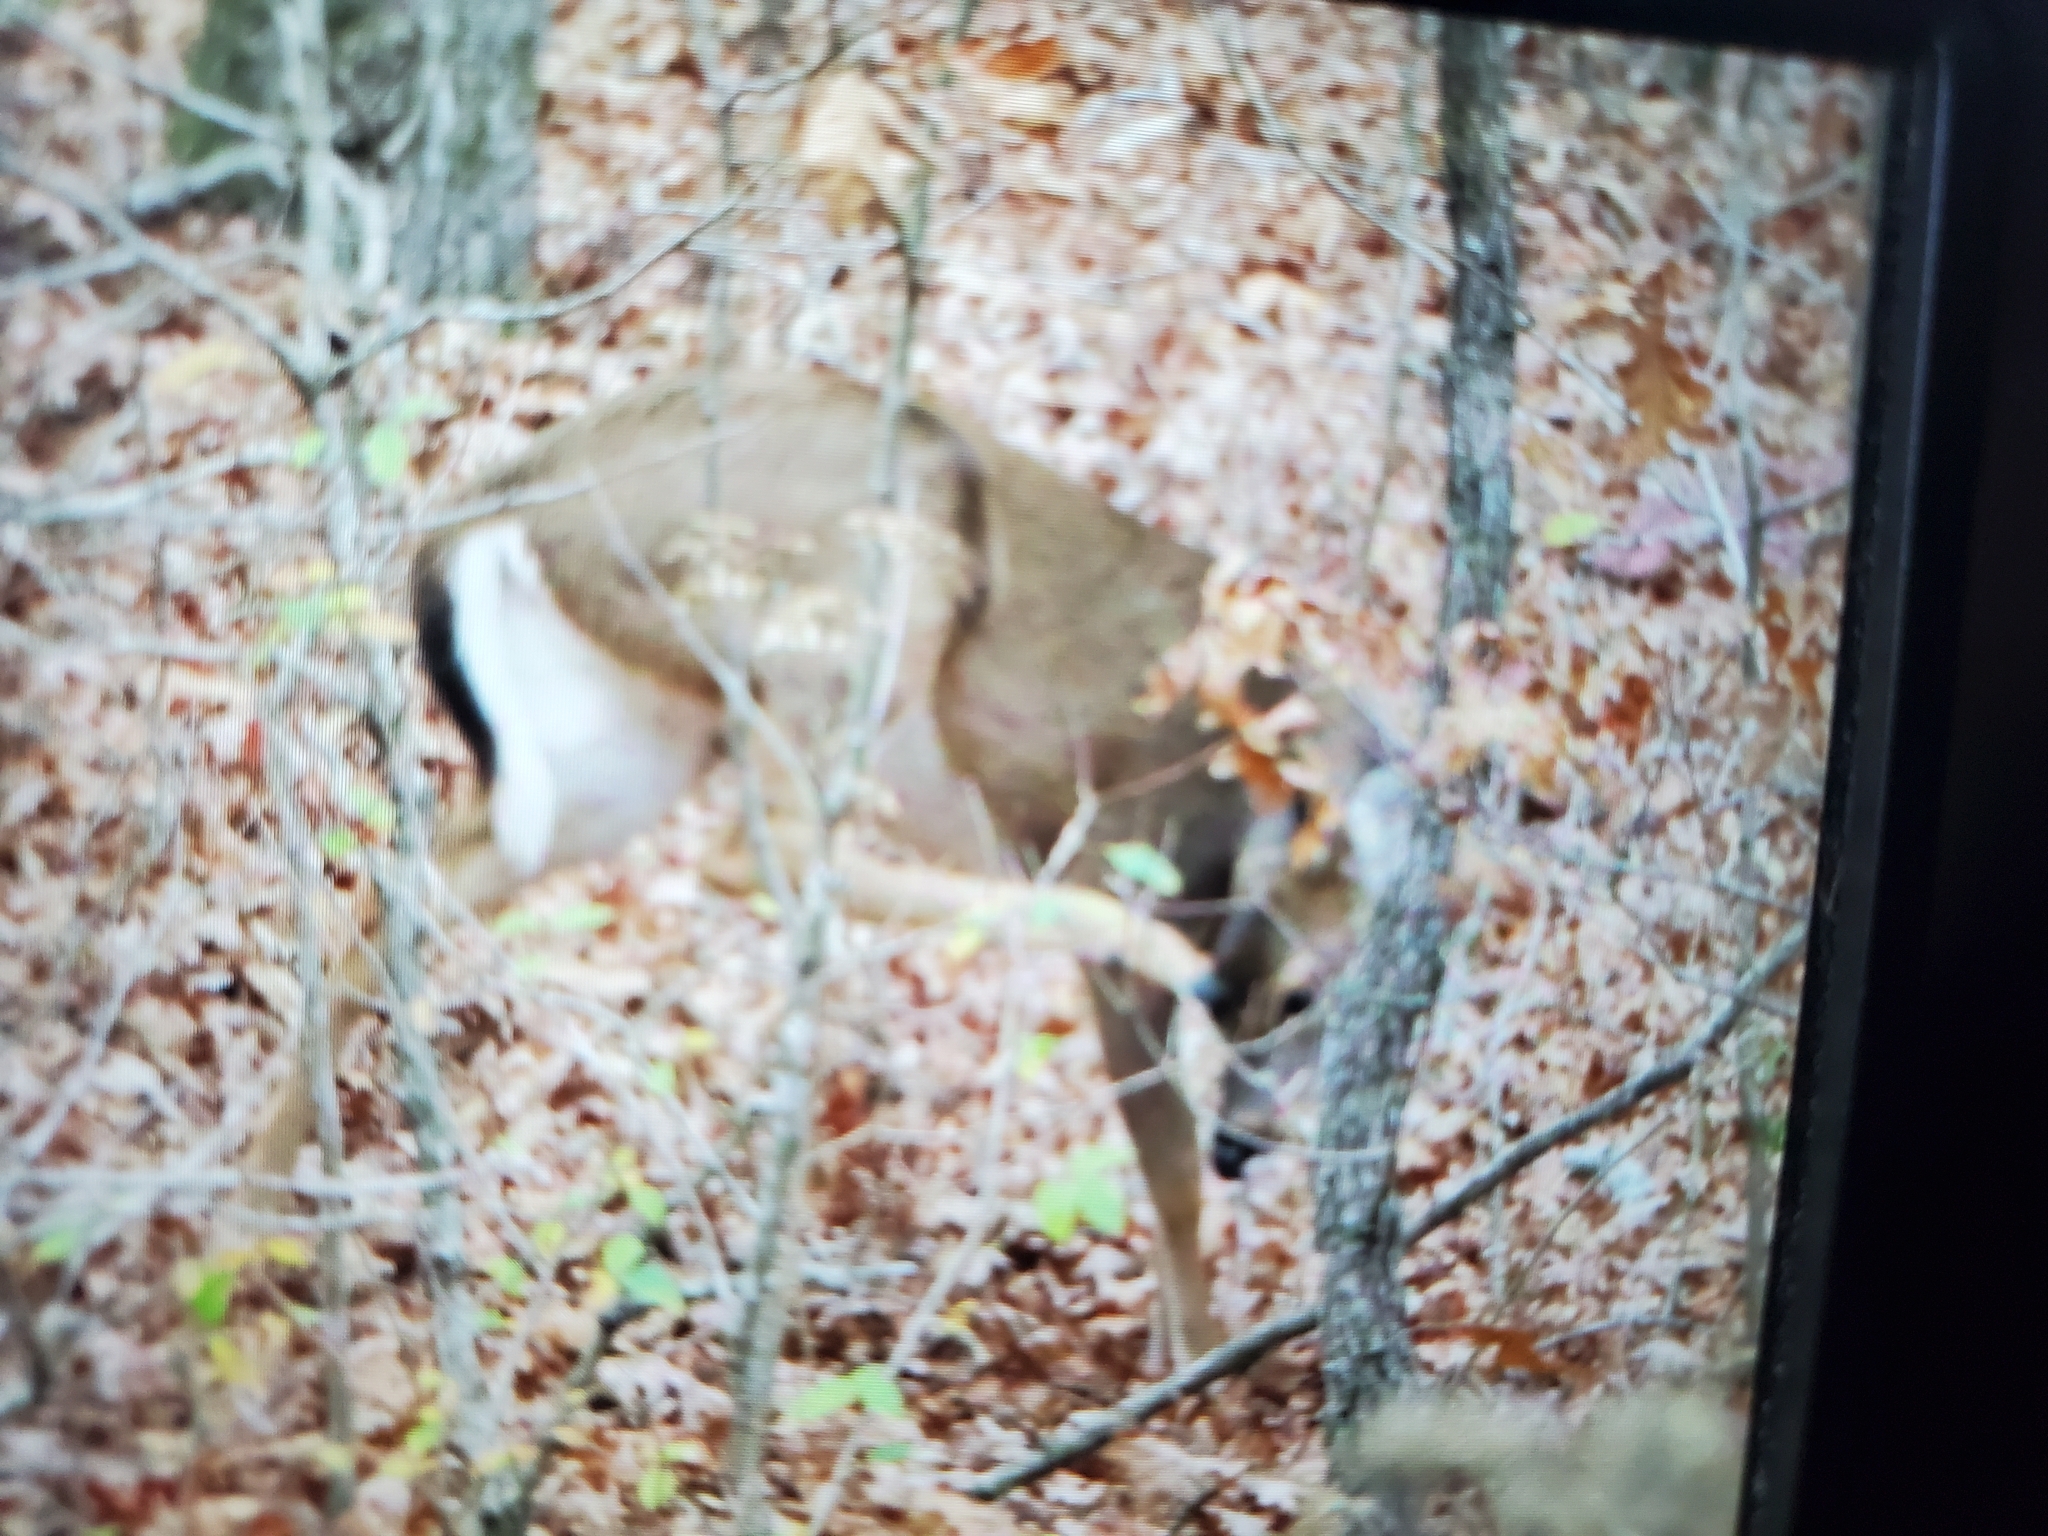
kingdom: Animalia
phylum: Chordata
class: Mammalia
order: Artiodactyla
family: Cervidae
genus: Odocoileus
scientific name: Odocoileus virginianus
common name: White-tailed deer
